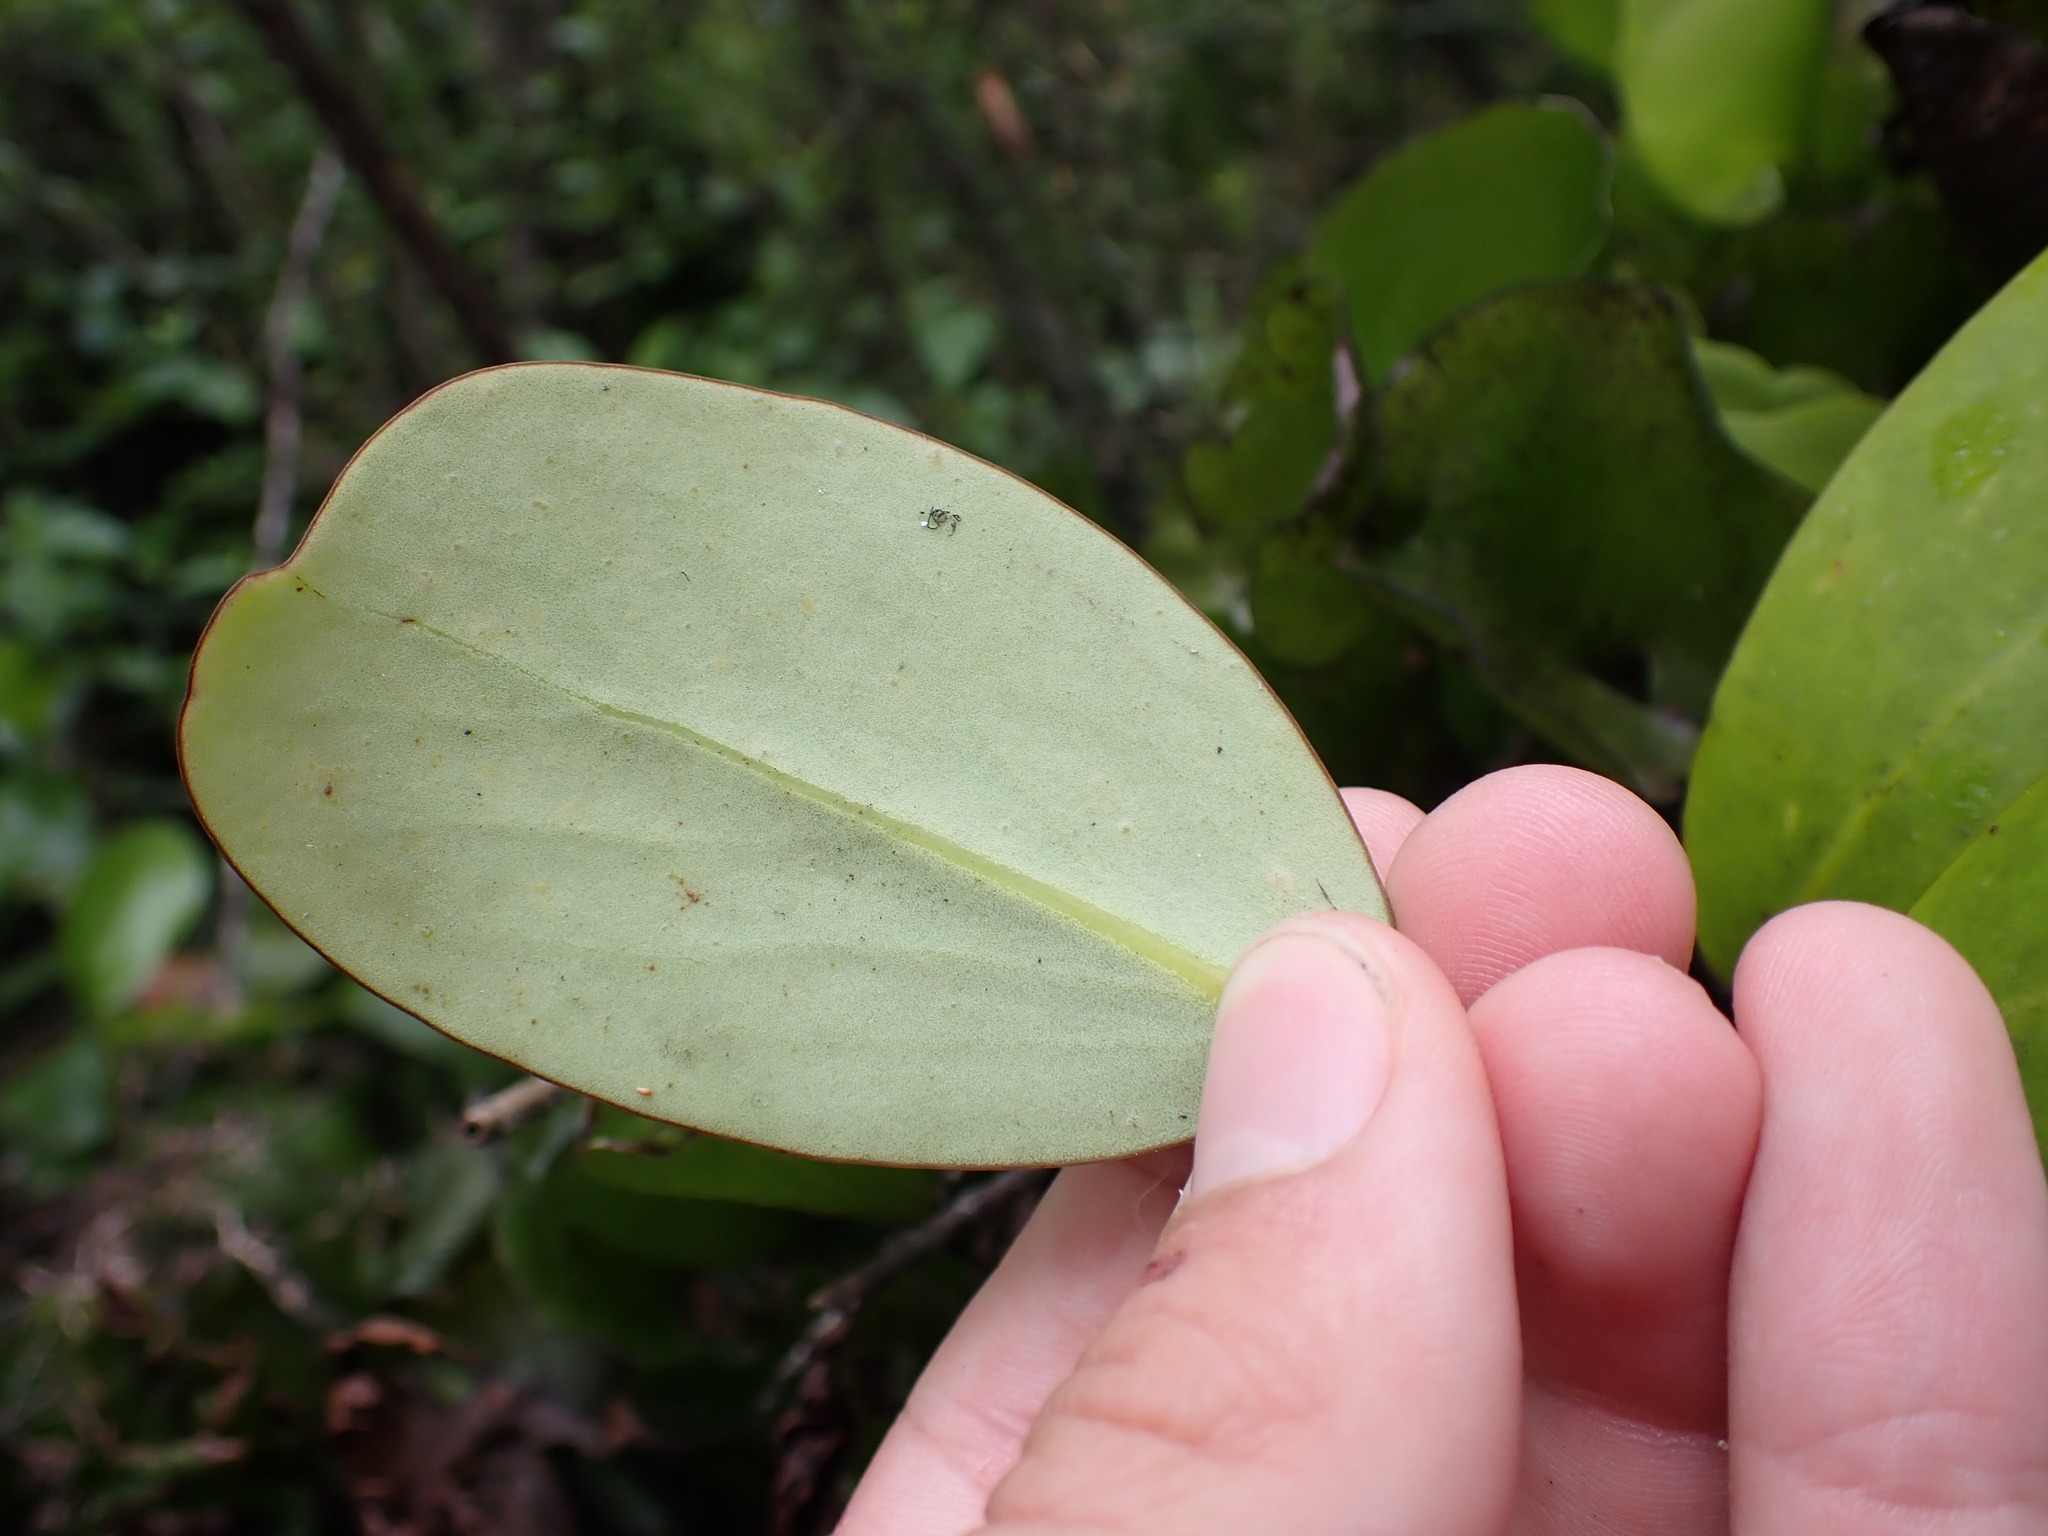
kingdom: Plantae
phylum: Tracheophyta
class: Magnoliopsida
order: Apiales
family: Griseliniaceae
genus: Griselinia
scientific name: Griselinia lucida
